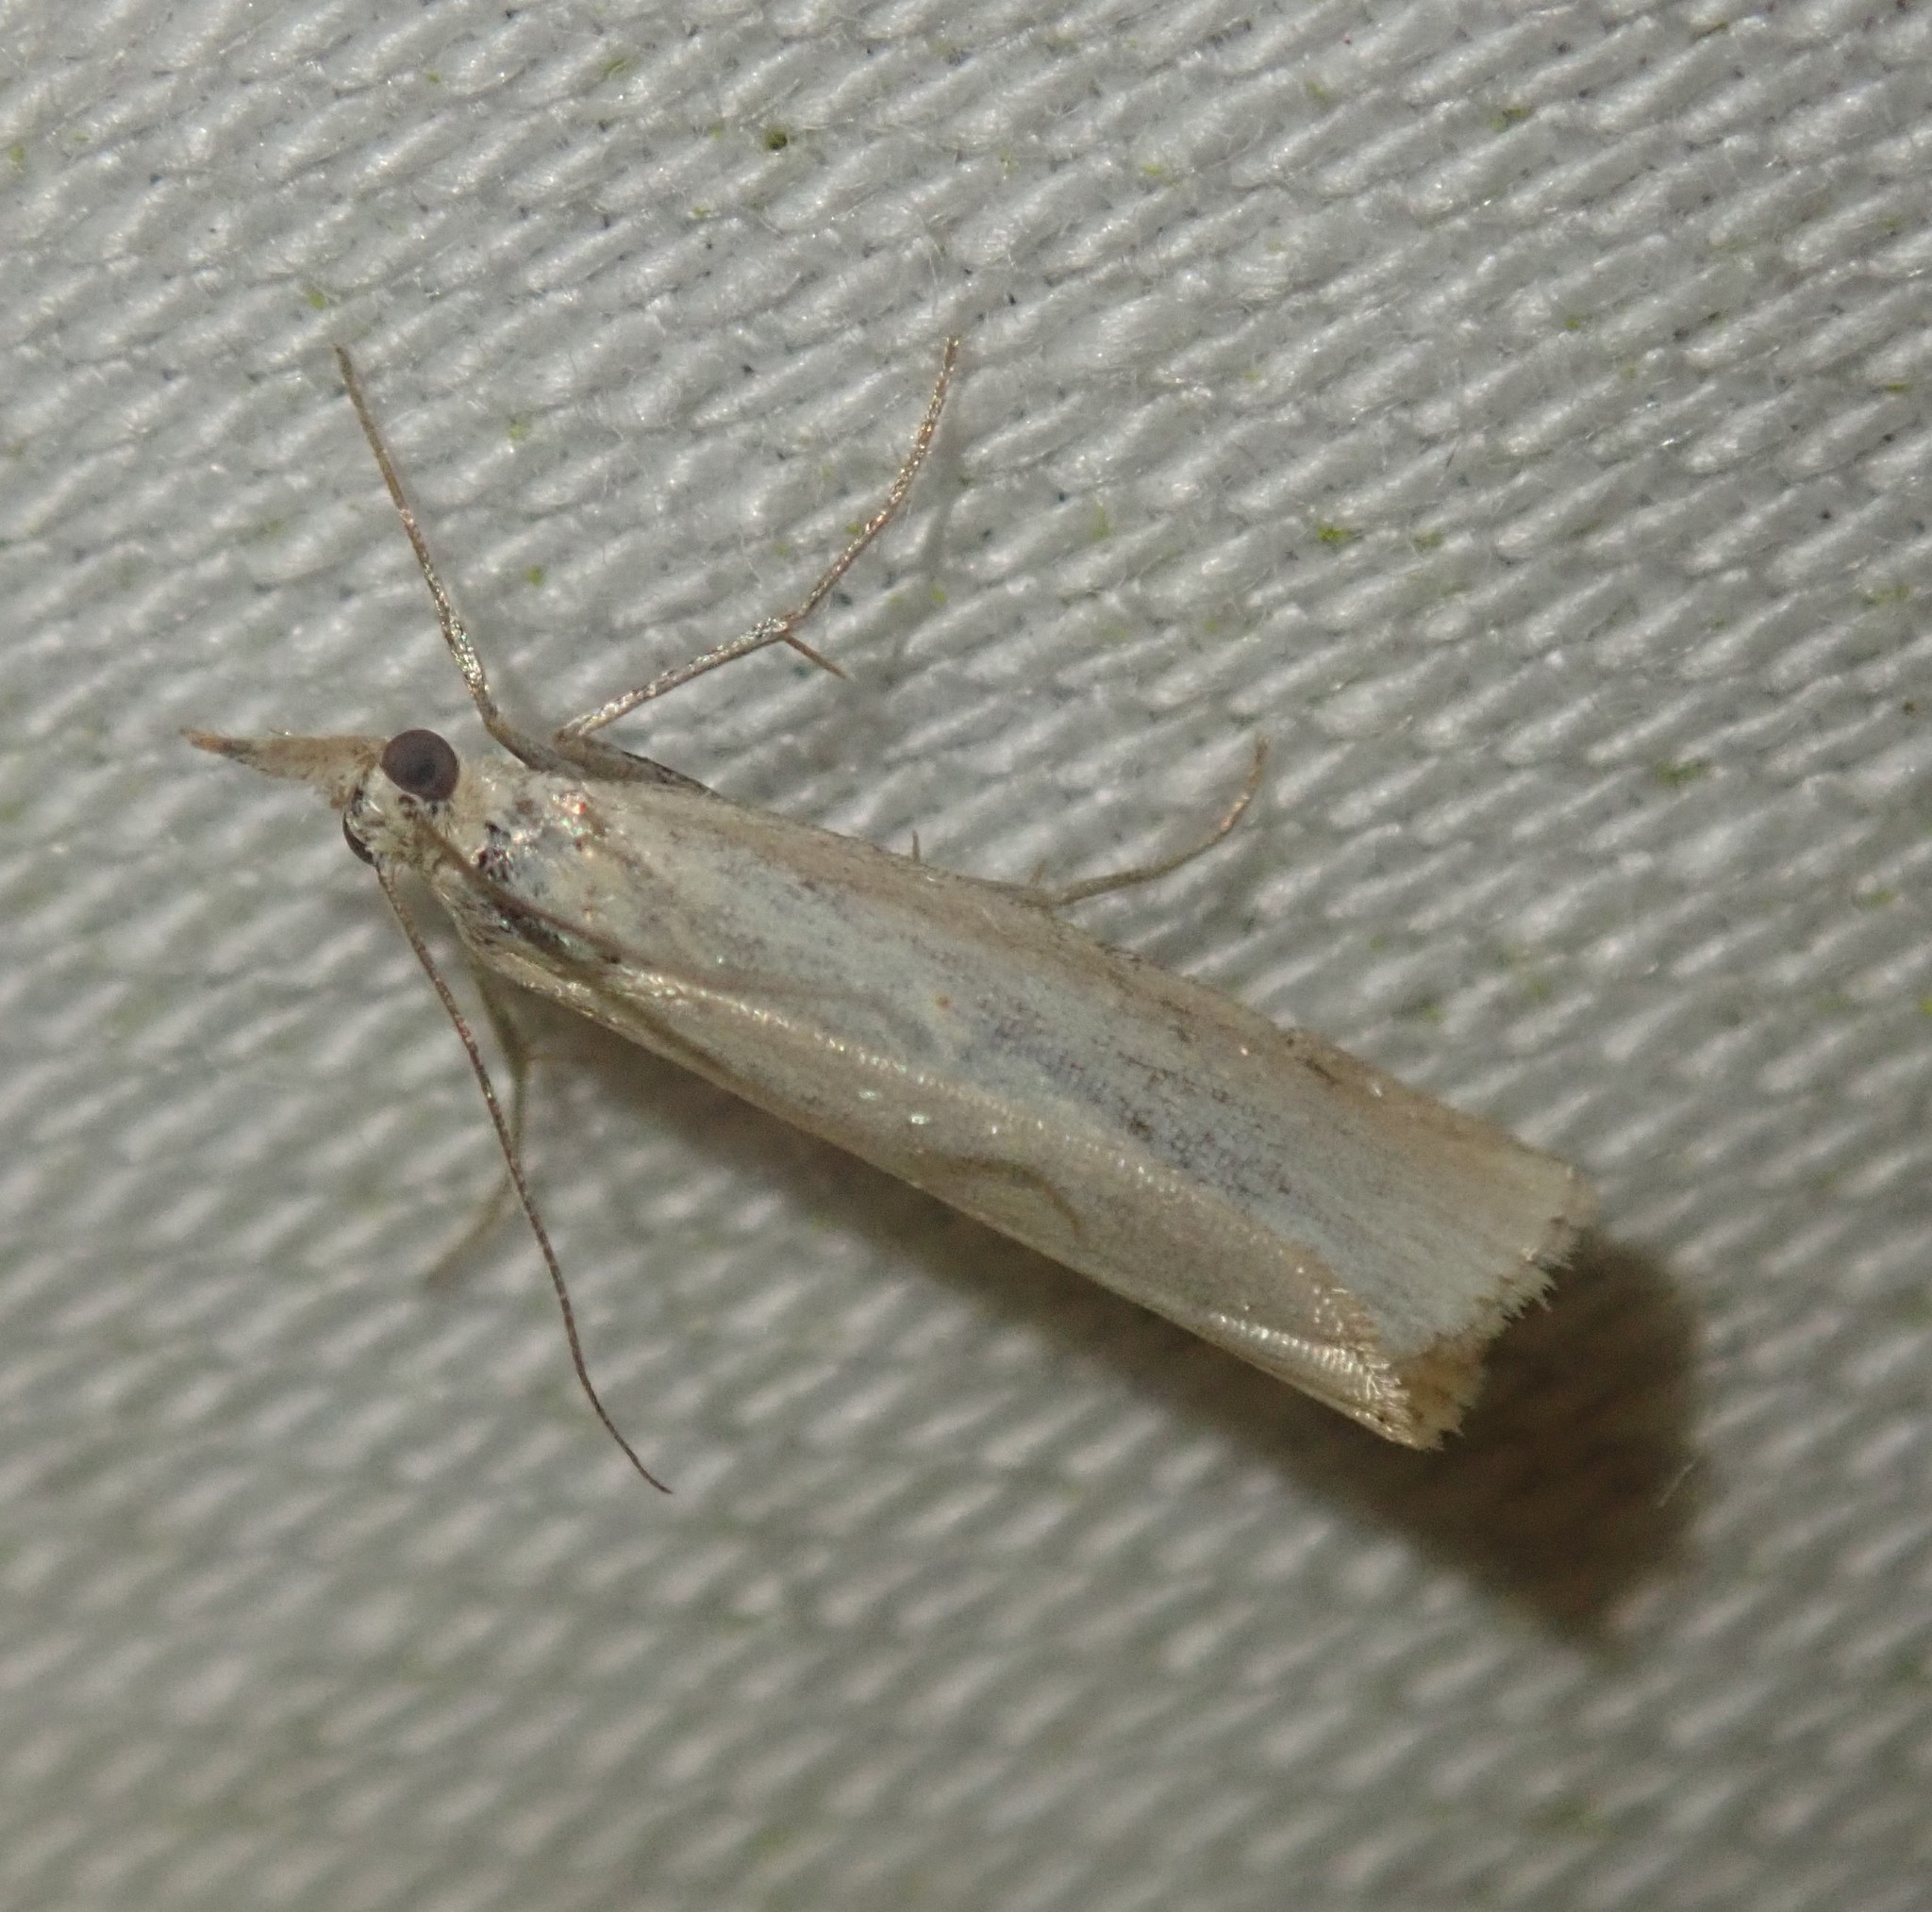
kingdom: Animalia
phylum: Arthropoda
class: Insecta
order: Lepidoptera
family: Crambidae
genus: Agriphila
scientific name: Agriphila straminella
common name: Straw grass-veneer
